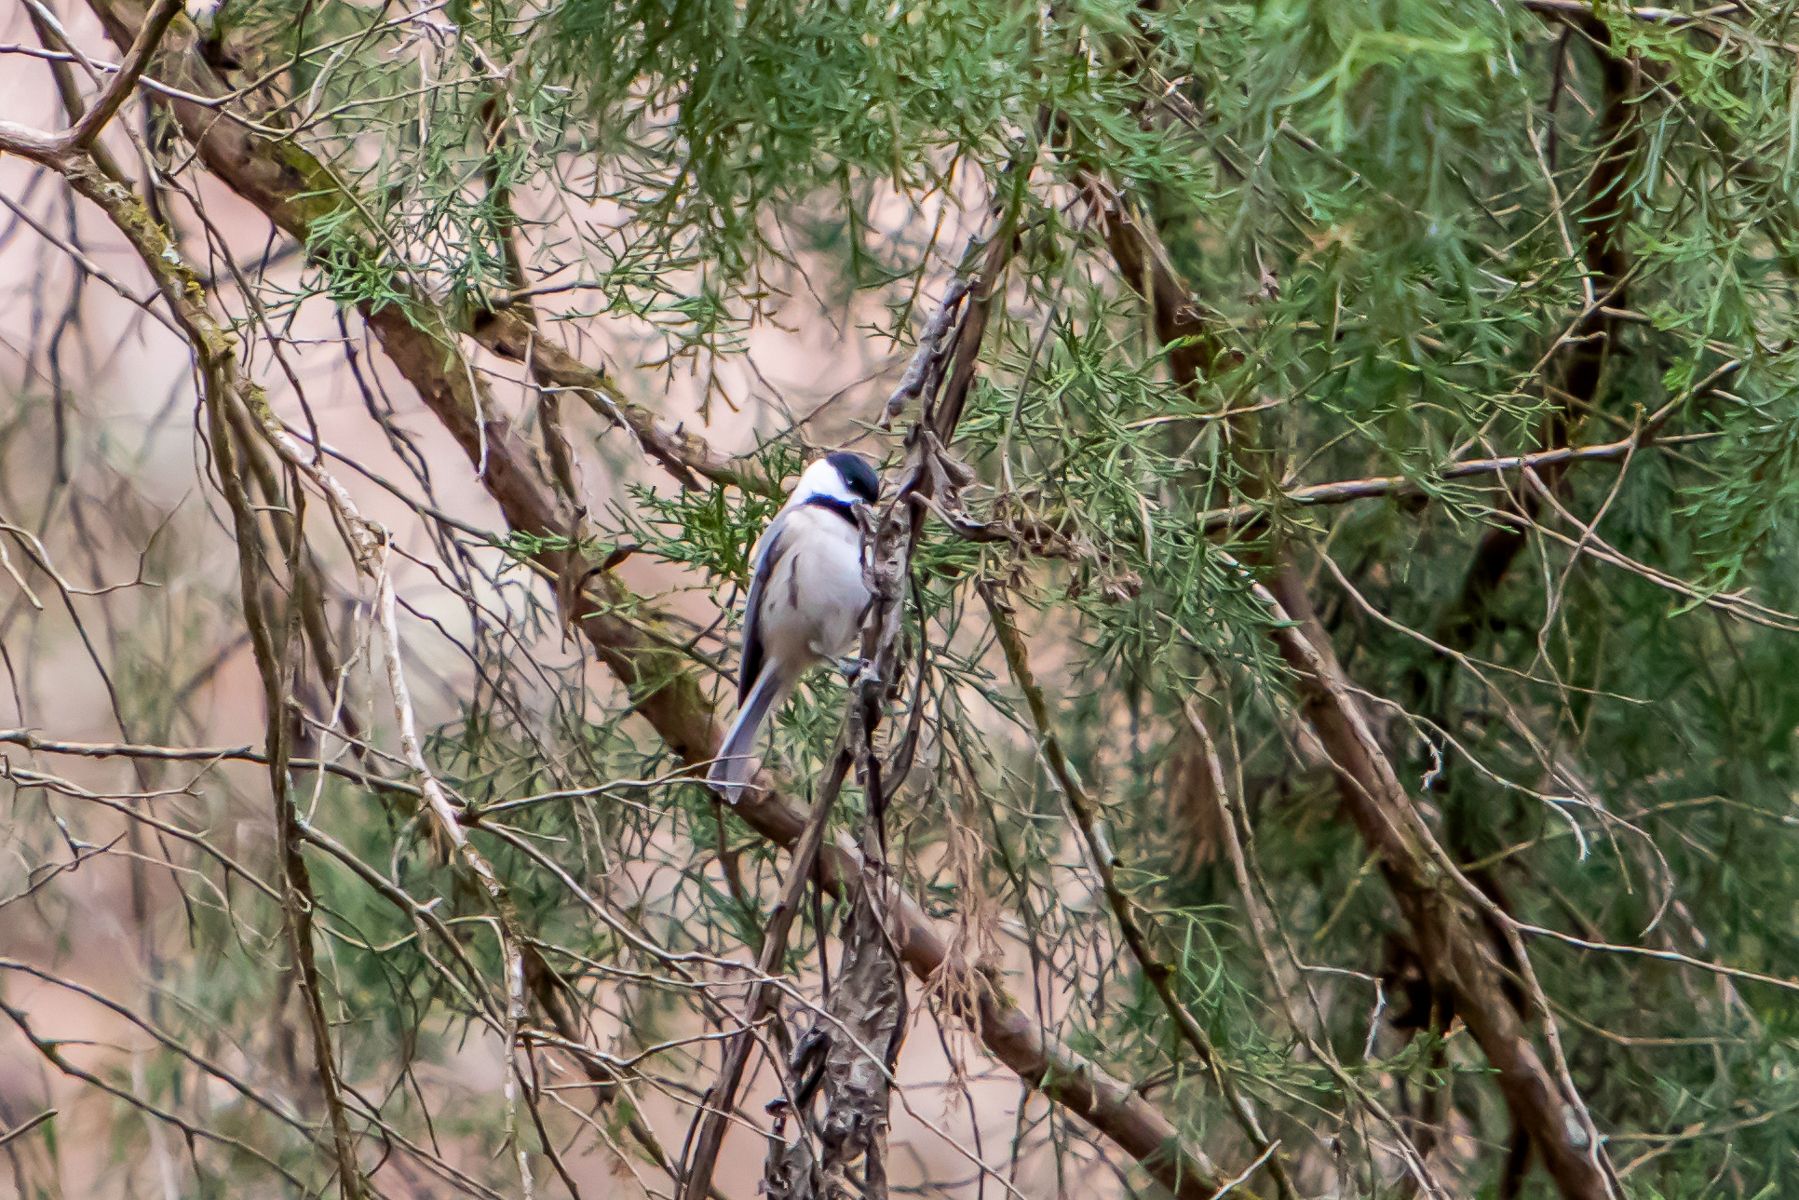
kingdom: Animalia
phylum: Chordata
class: Aves
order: Passeriformes
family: Paridae
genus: Poecile
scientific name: Poecile carolinensis
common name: Carolina chickadee
